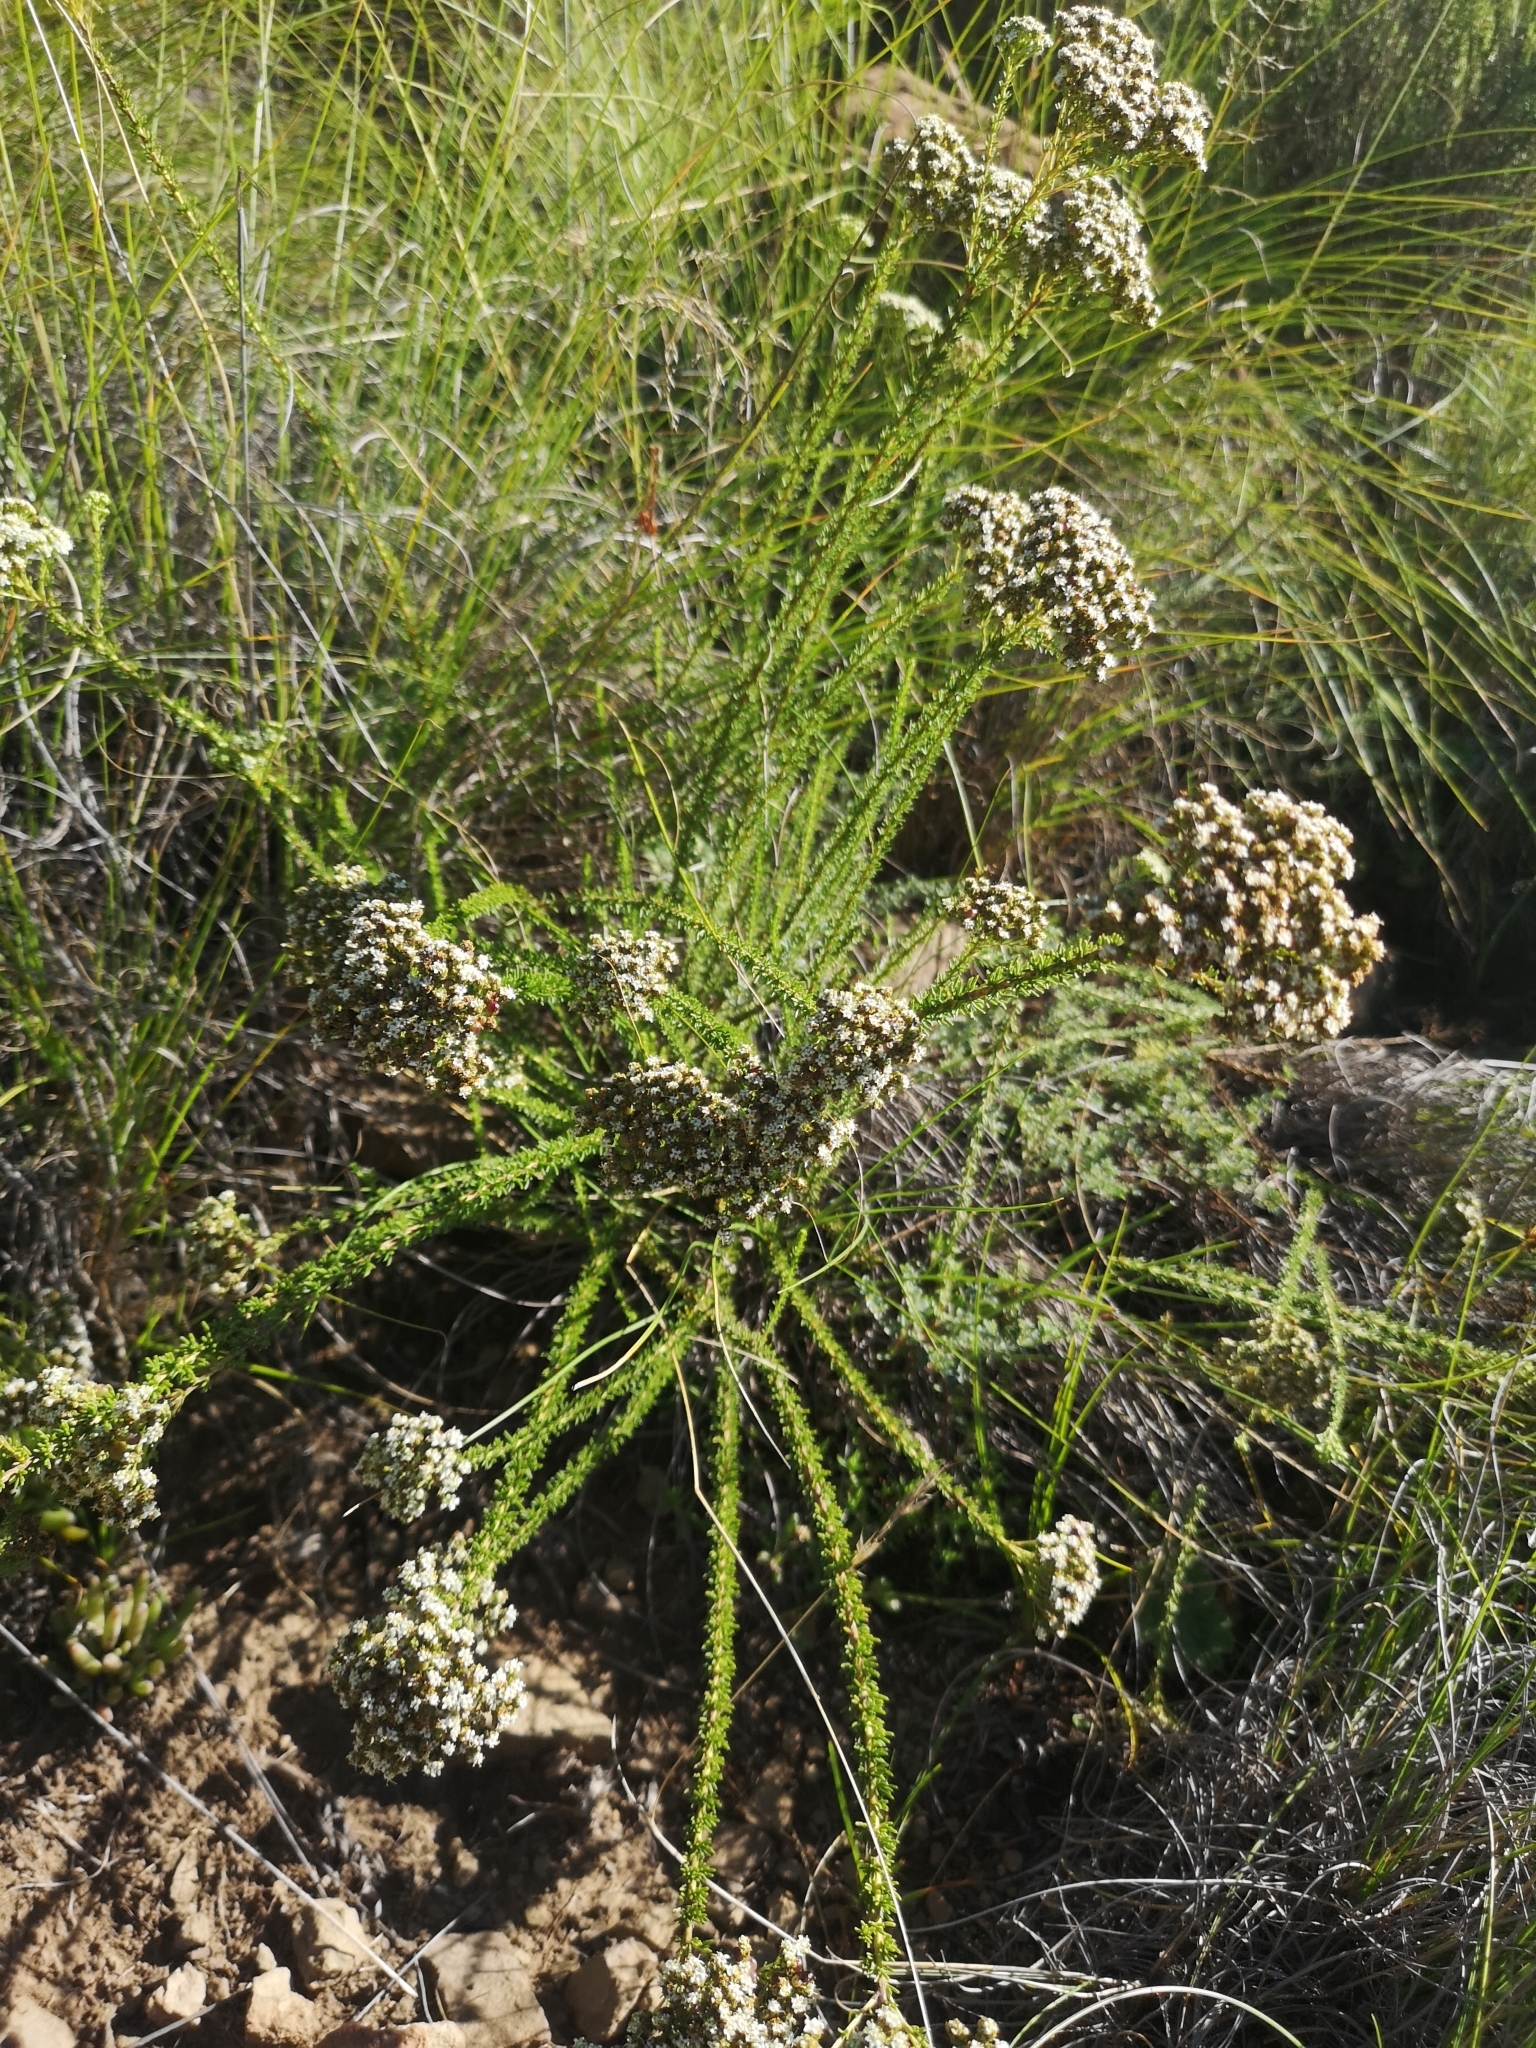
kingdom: Plantae
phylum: Tracheophyta
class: Magnoliopsida
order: Lamiales
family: Scrophulariaceae
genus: Selago
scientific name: Selago dolosa
